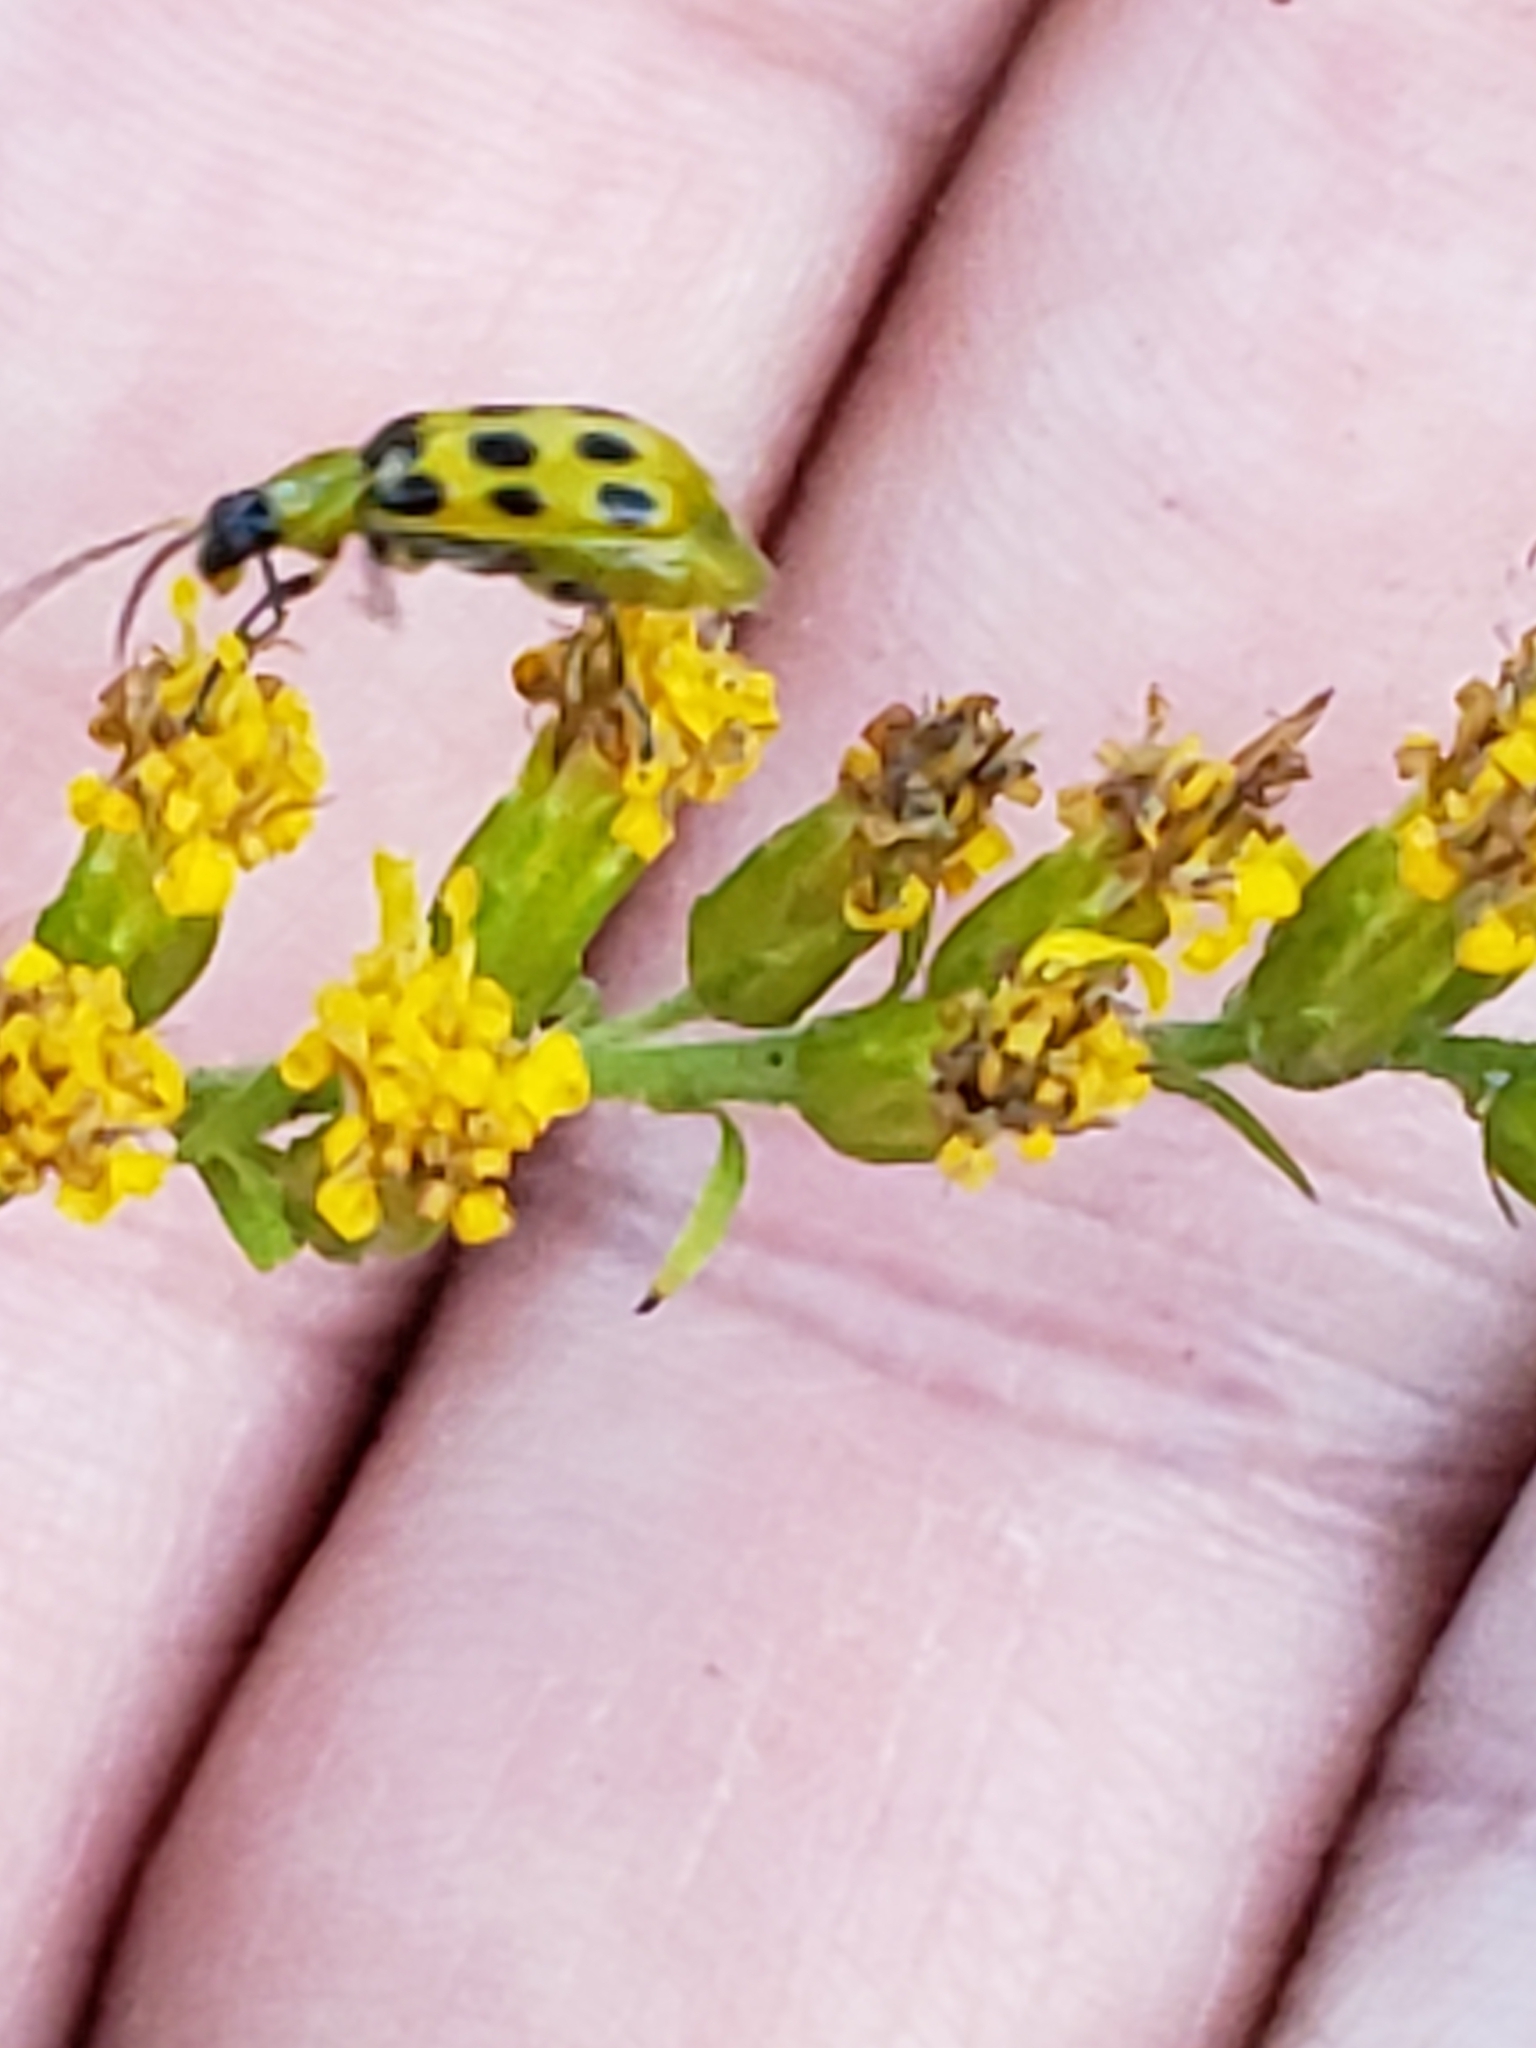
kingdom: Animalia
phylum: Arthropoda
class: Insecta
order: Coleoptera
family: Chrysomelidae
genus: Diabrotica
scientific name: Diabrotica undecimpunctata
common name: Spotted cucumber beetle
